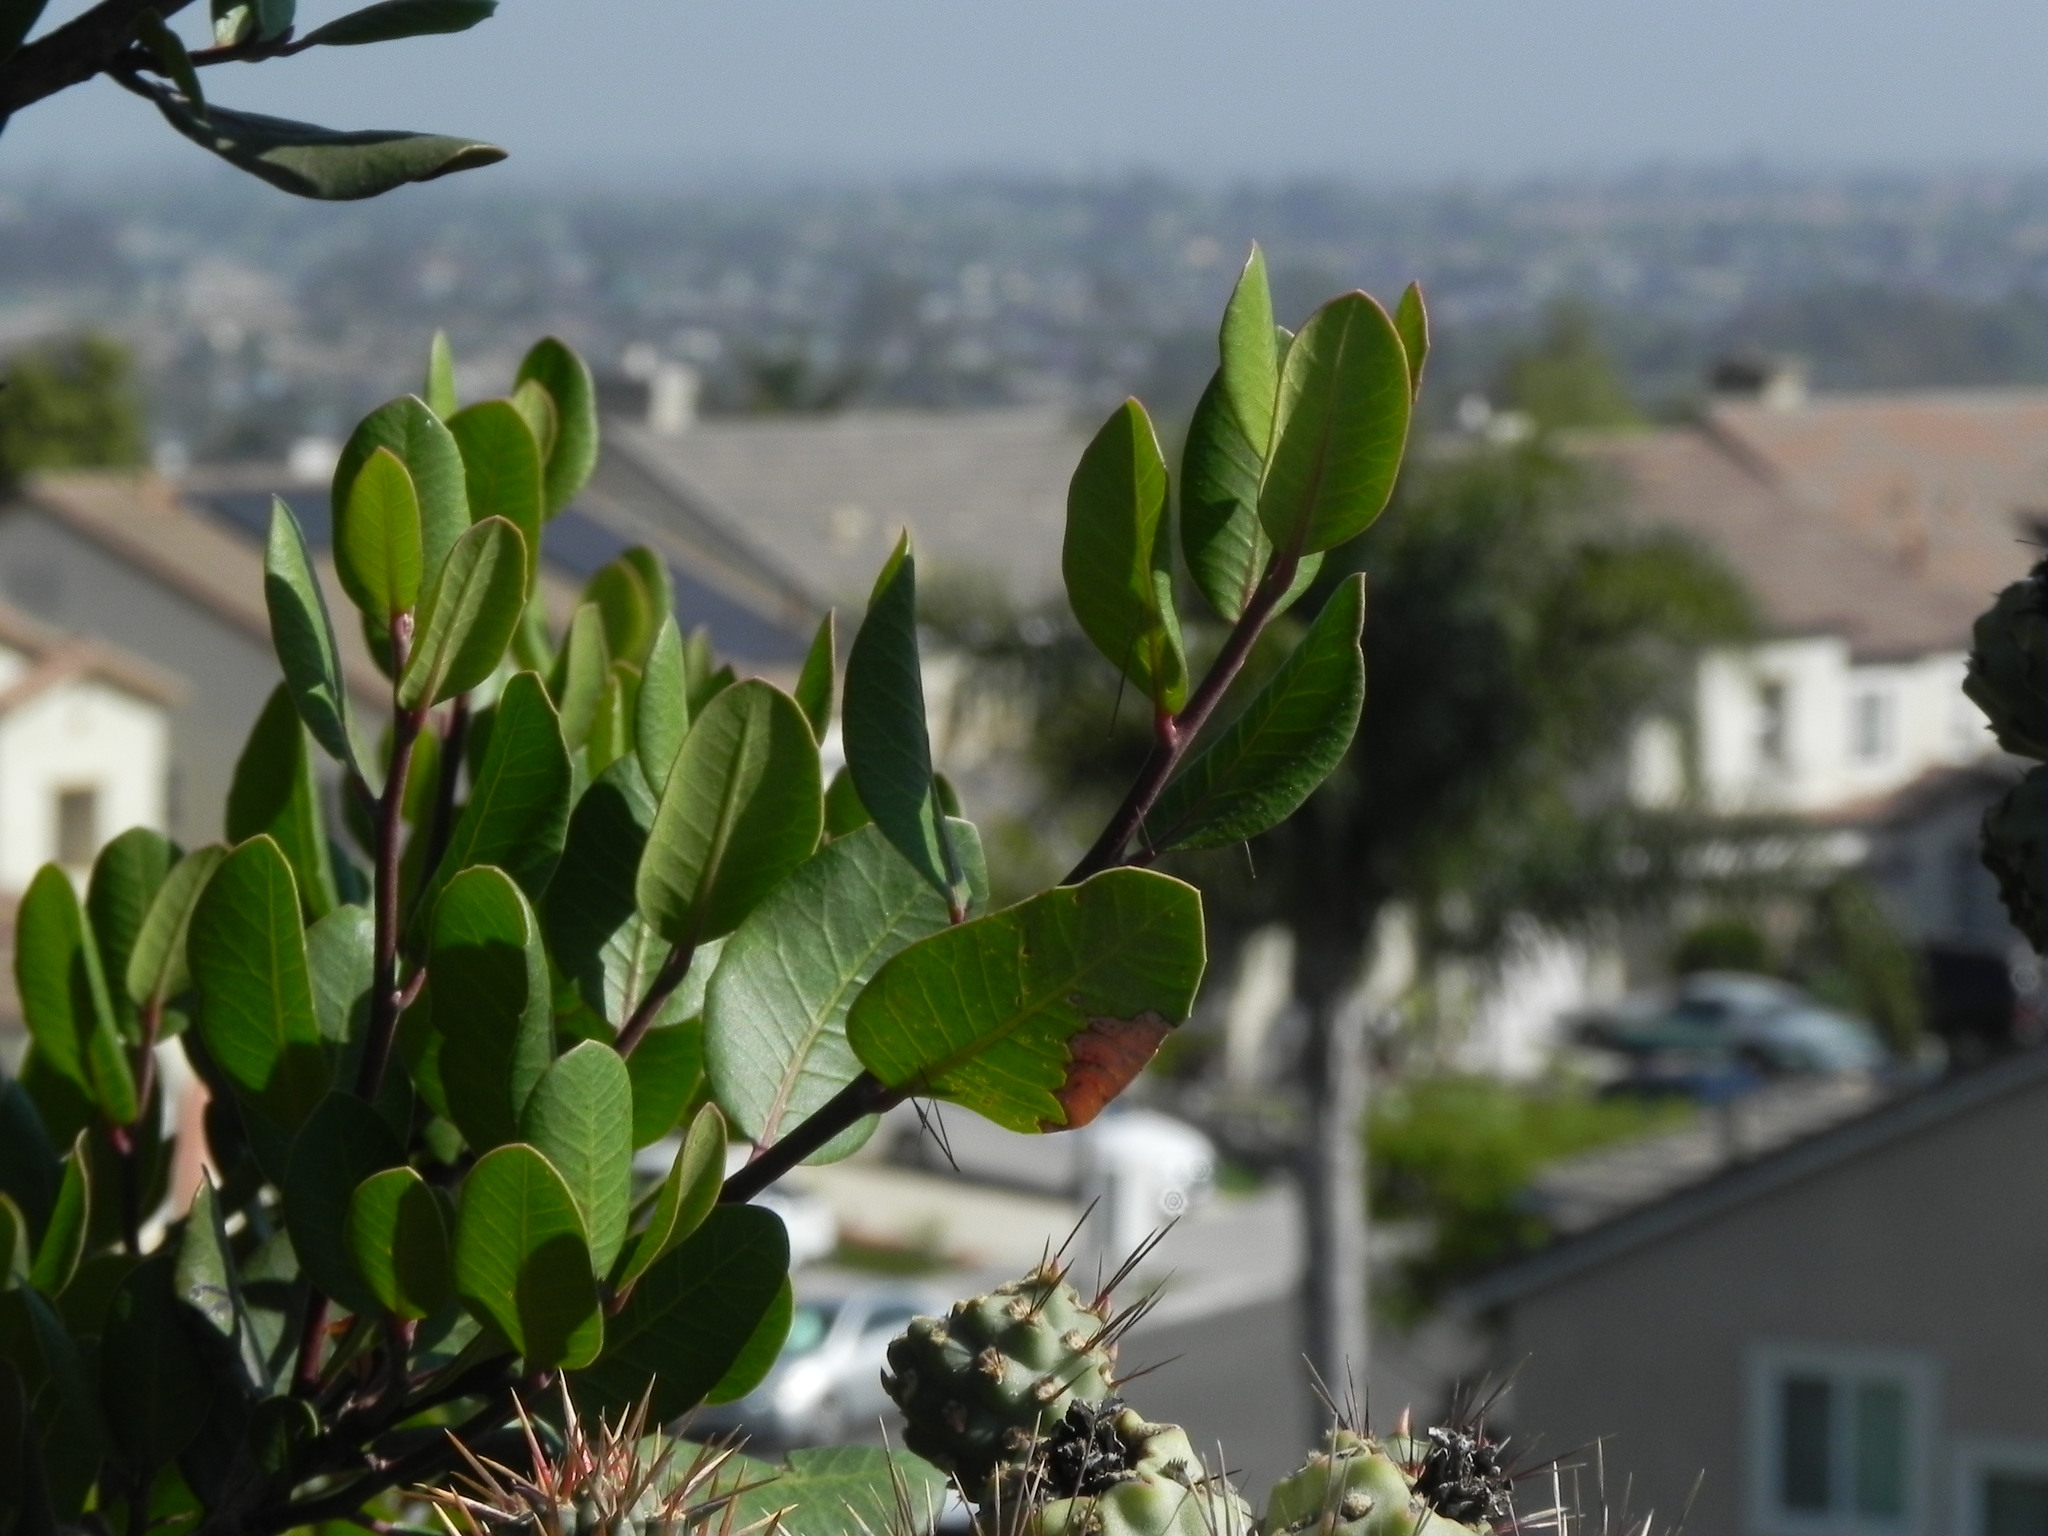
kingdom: Plantae
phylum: Tracheophyta
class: Magnoliopsida
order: Sapindales
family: Anacardiaceae
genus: Rhus
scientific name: Rhus integrifolia
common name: Lemonade sumac
